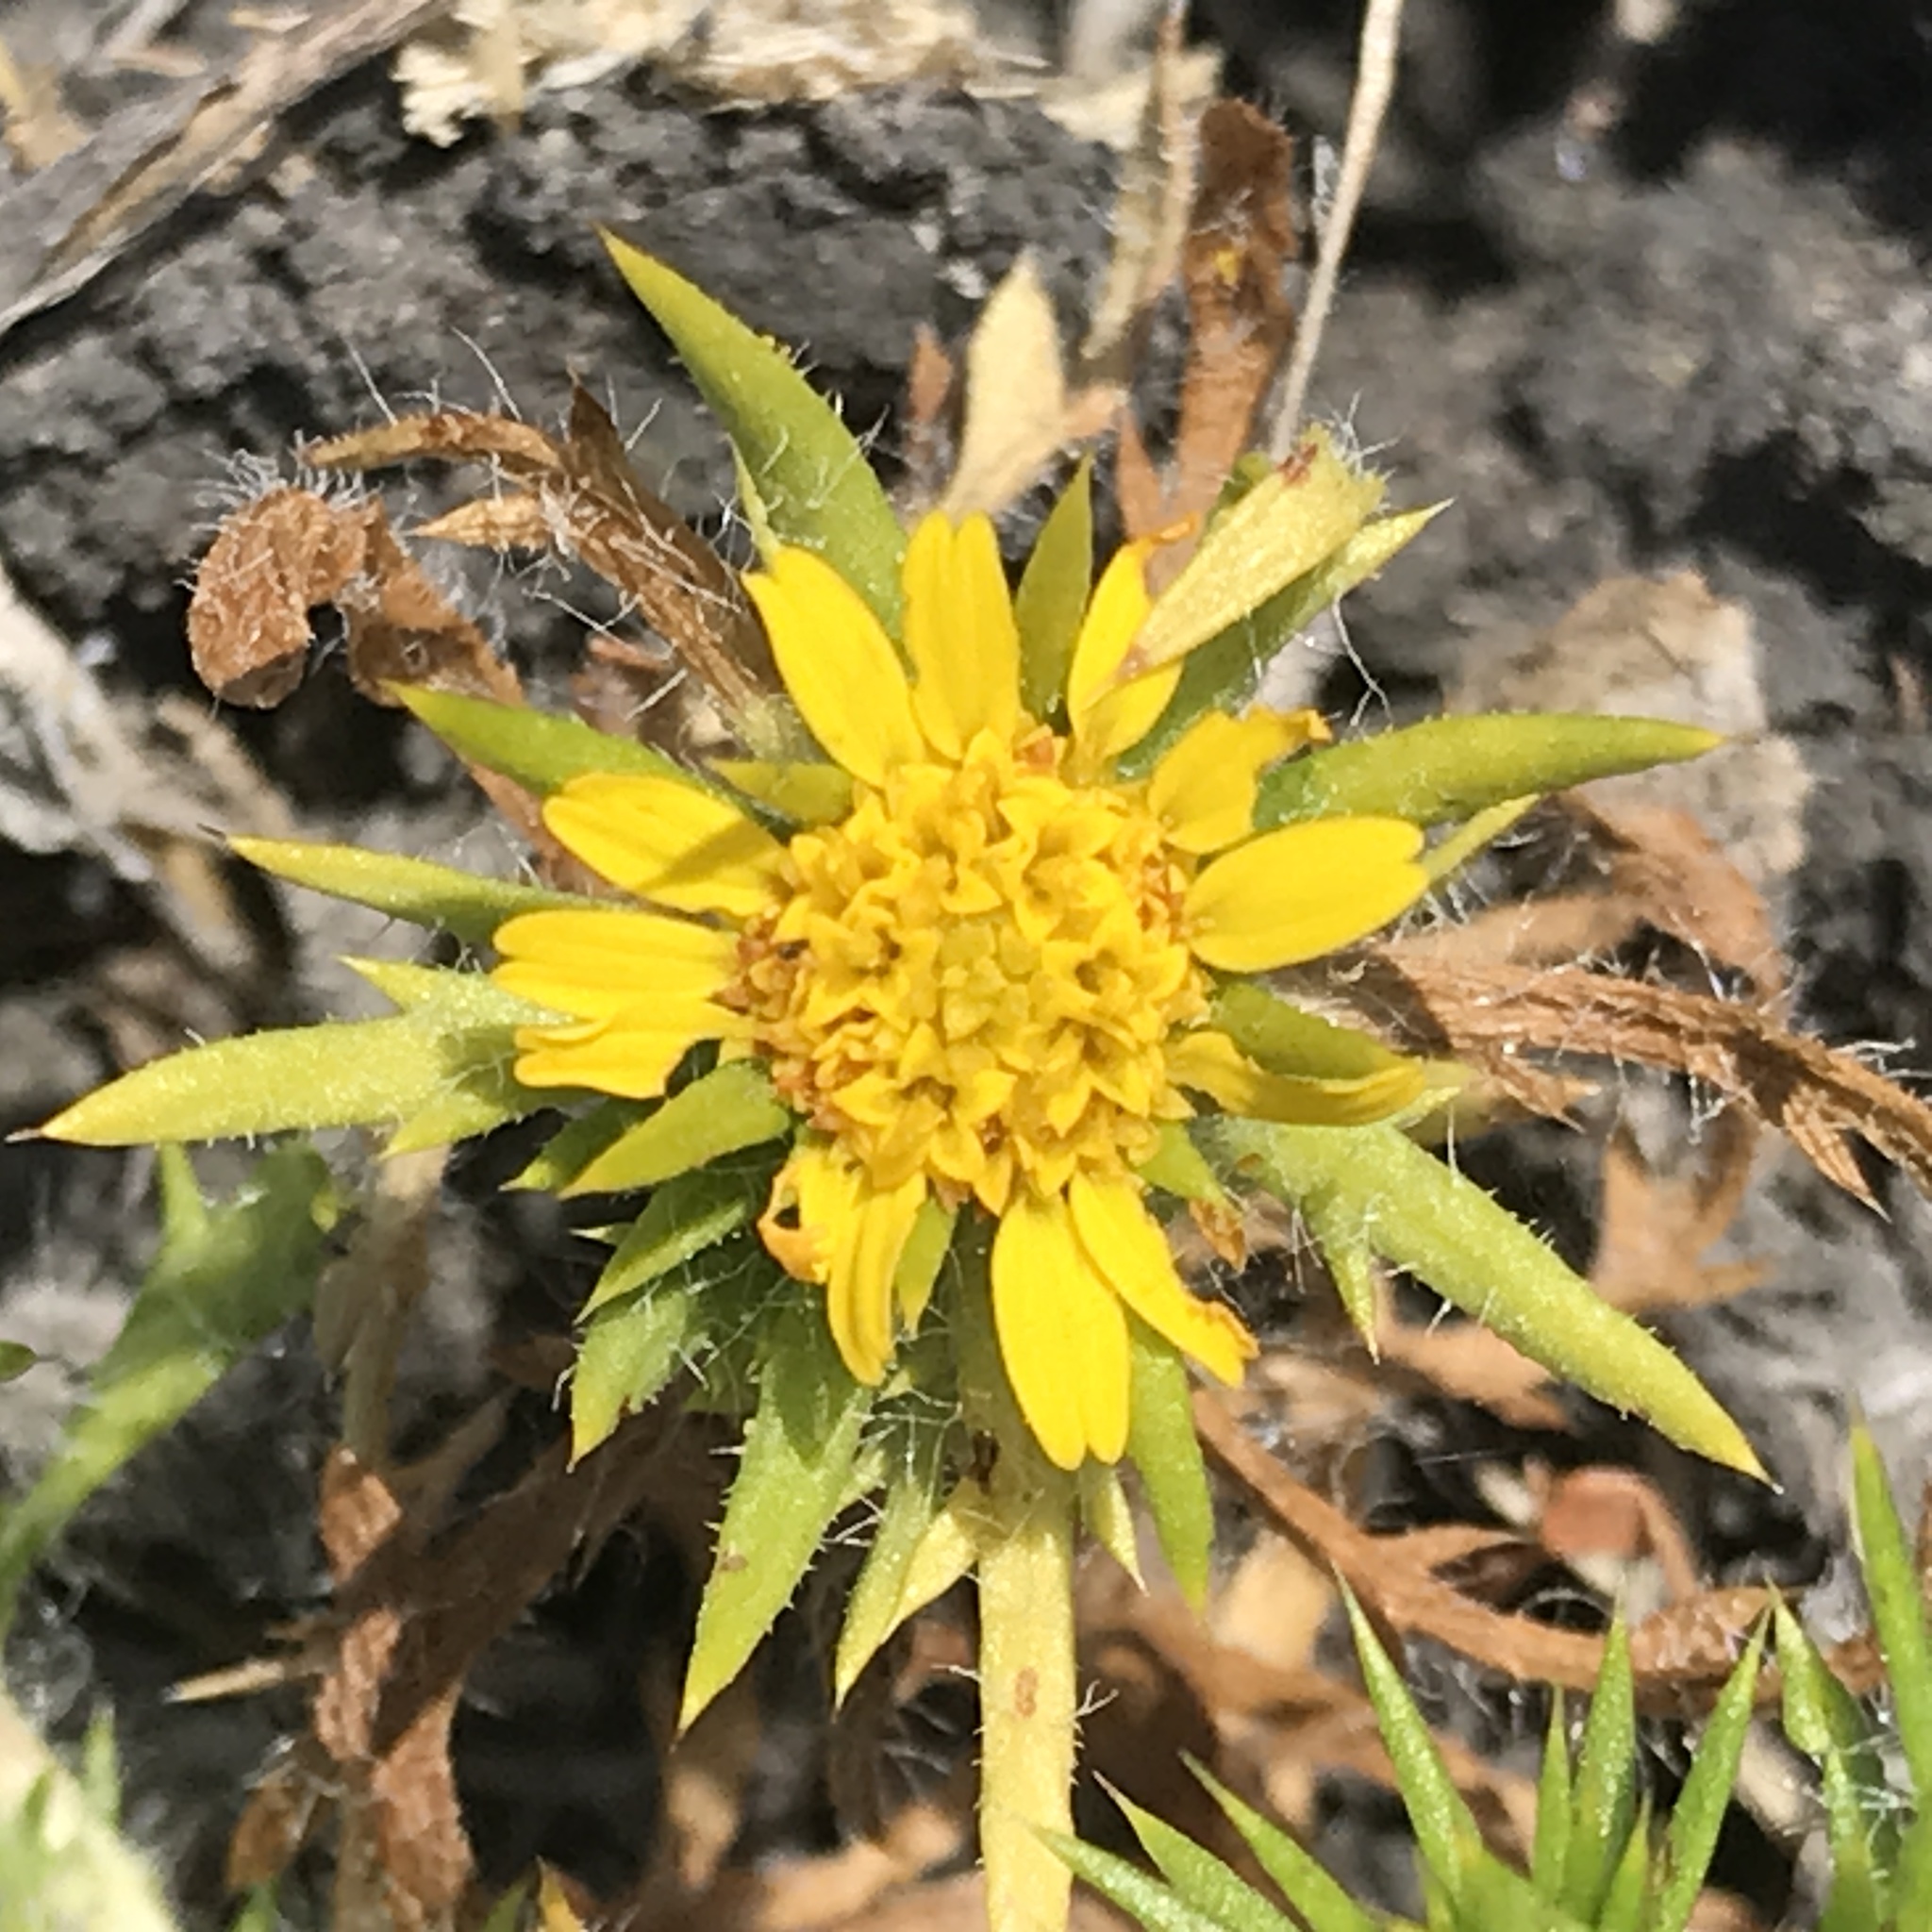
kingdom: Plantae
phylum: Tracheophyta
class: Magnoliopsida
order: Asterales
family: Asteraceae
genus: Centromadia
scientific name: Centromadia parryi
